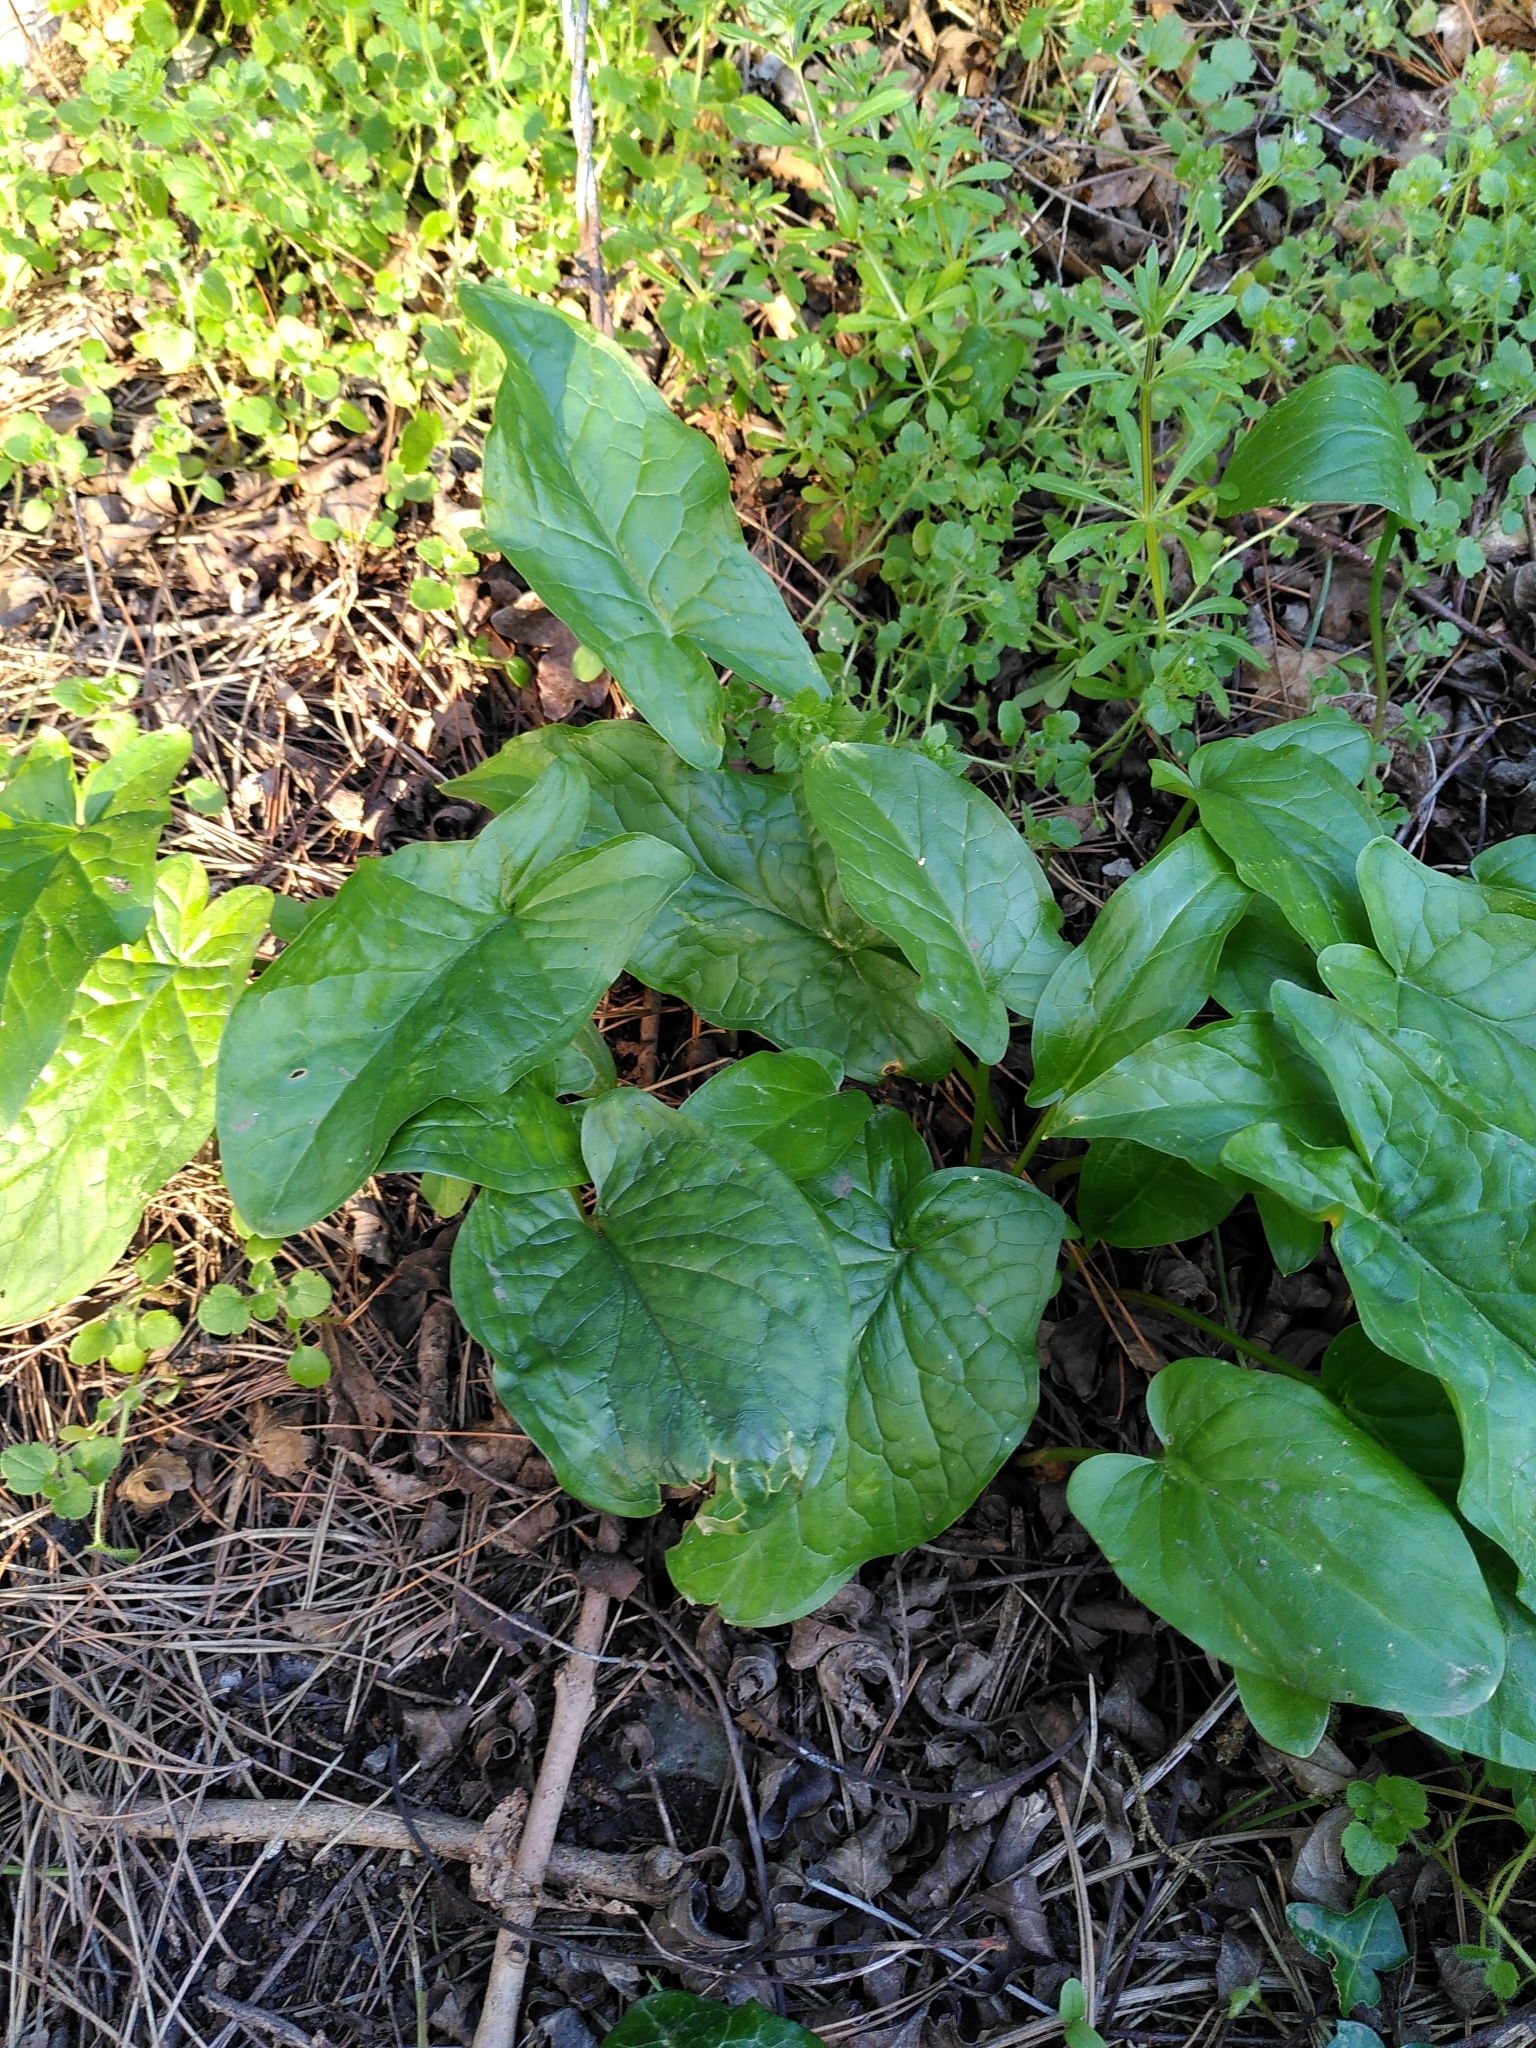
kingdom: Plantae
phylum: Tracheophyta
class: Liliopsida
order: Alismatales
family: Araceae
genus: Arum
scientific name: Arum maculatum
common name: Lords-and-ladies
